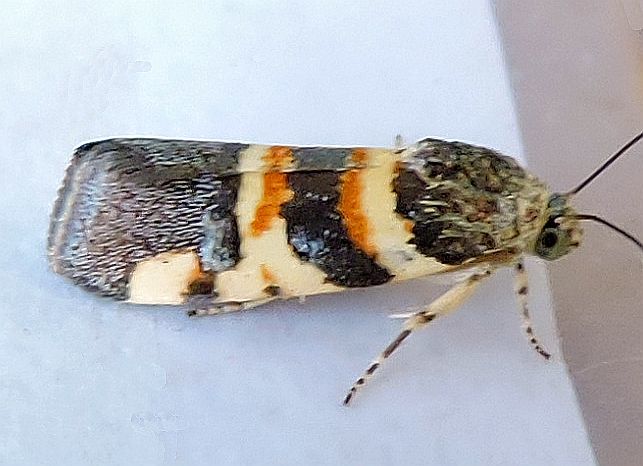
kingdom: Animalia
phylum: Arthropoda
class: Insecta
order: Lepidoptera
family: Noctuidae
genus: Spragueia
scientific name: Spragueia funeralis
